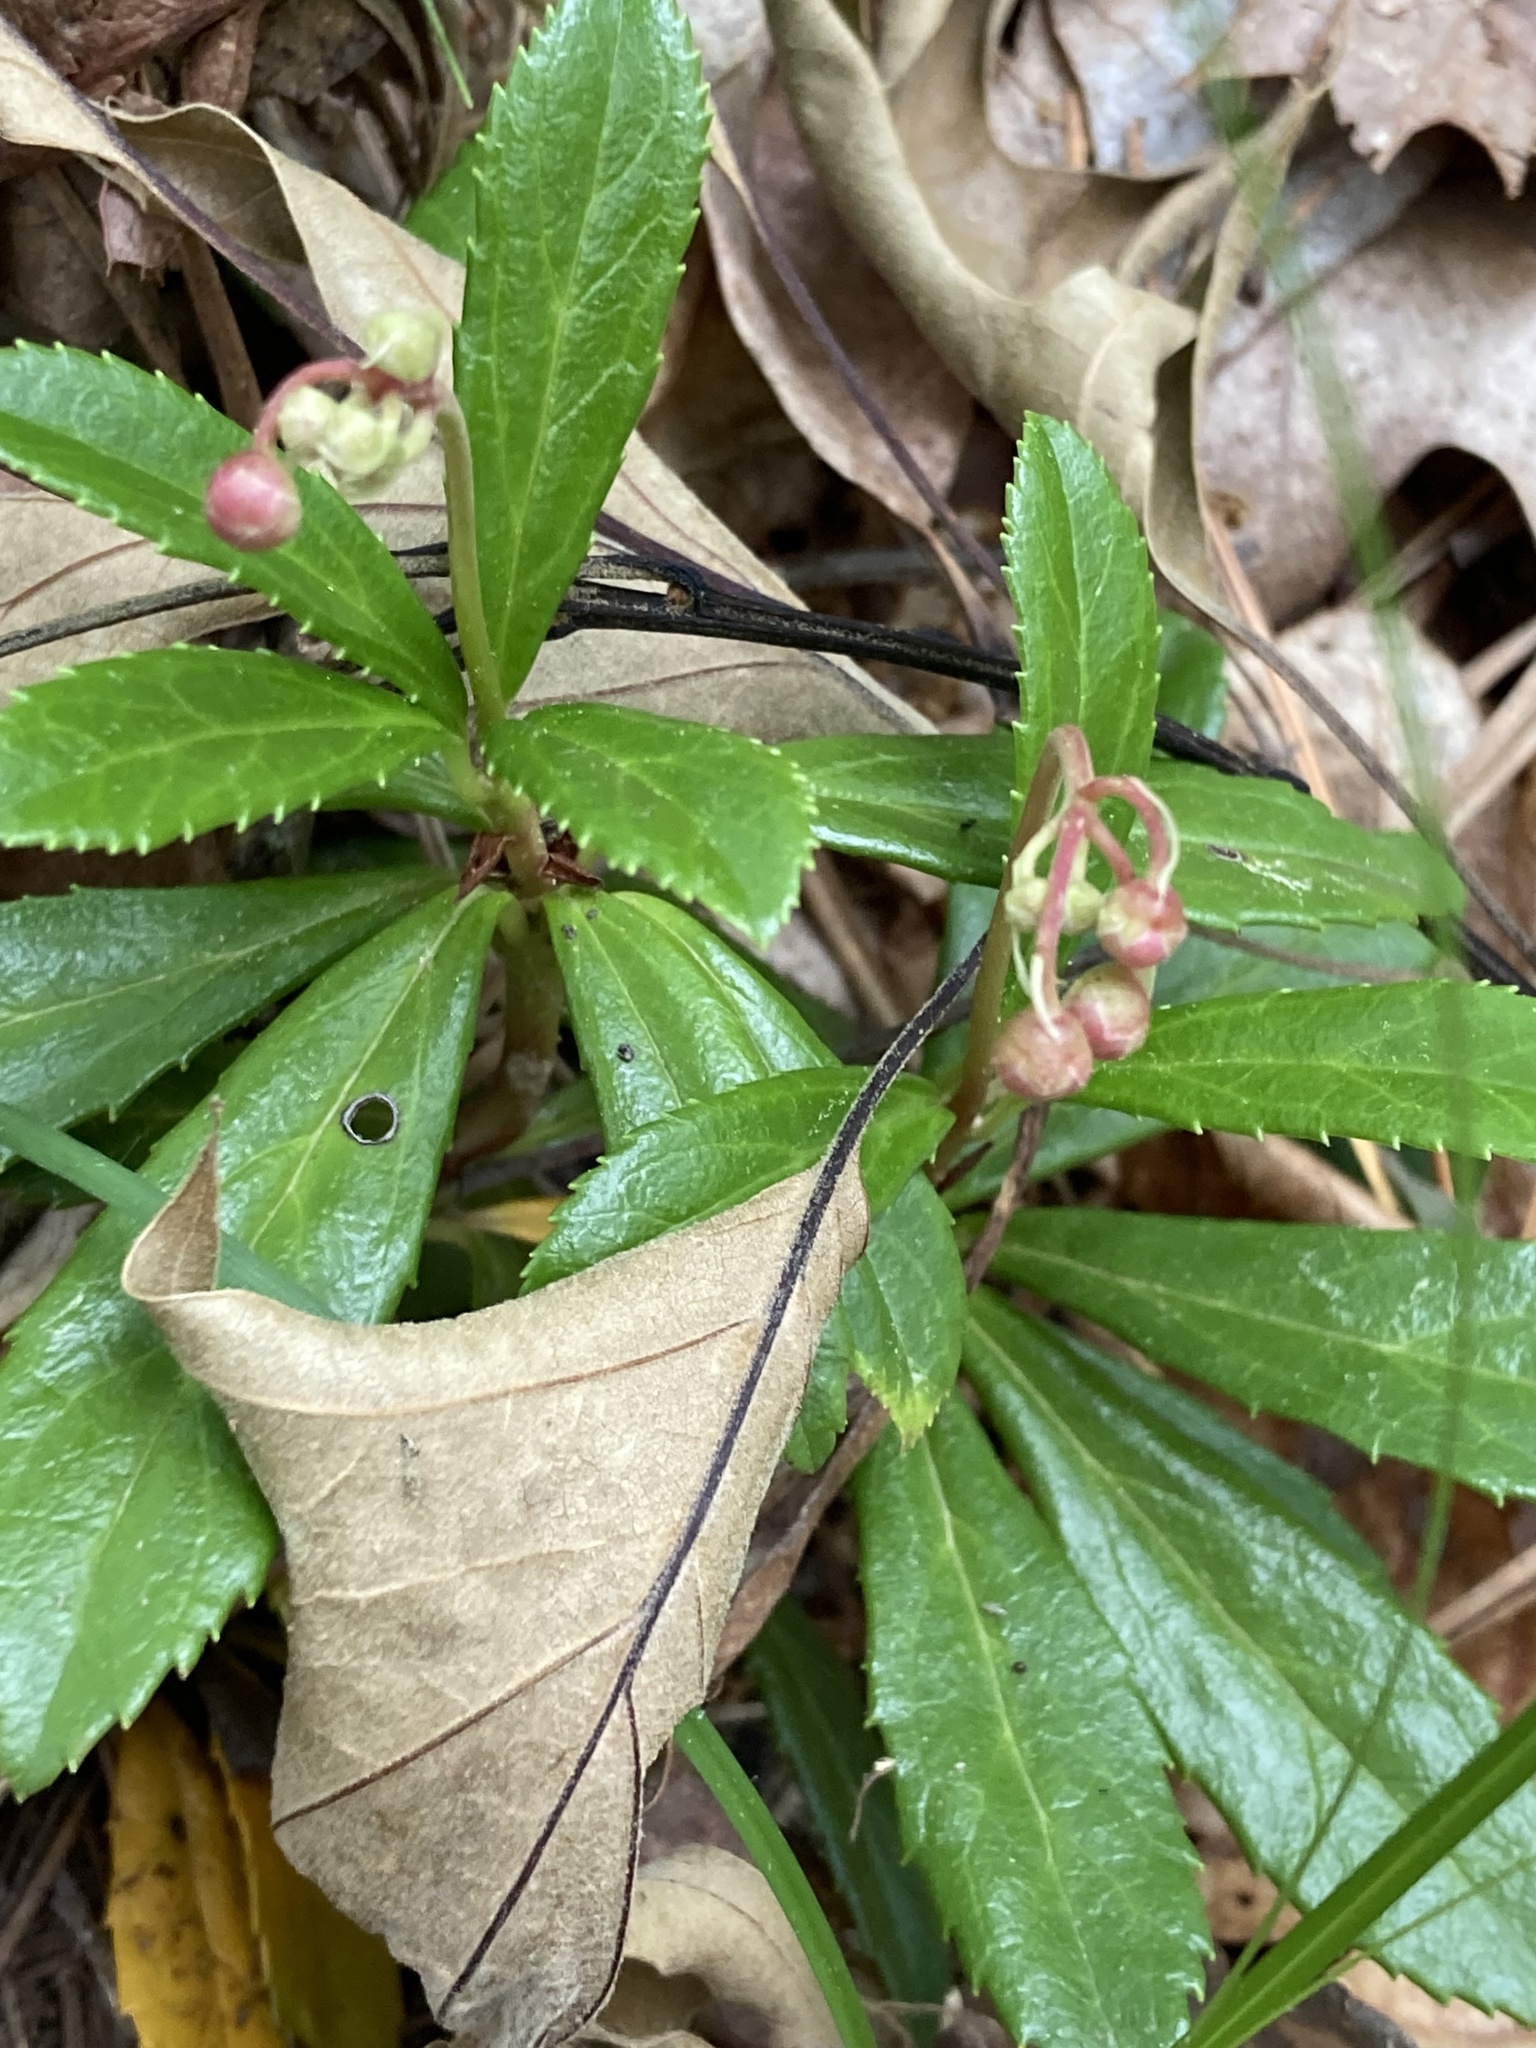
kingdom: Plantae
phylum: Tracheophyta
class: Magnoliopsida
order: Ericales
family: Ericaceae
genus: Chimaphila
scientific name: Chimaphila umbellata
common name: Pipsissewa
